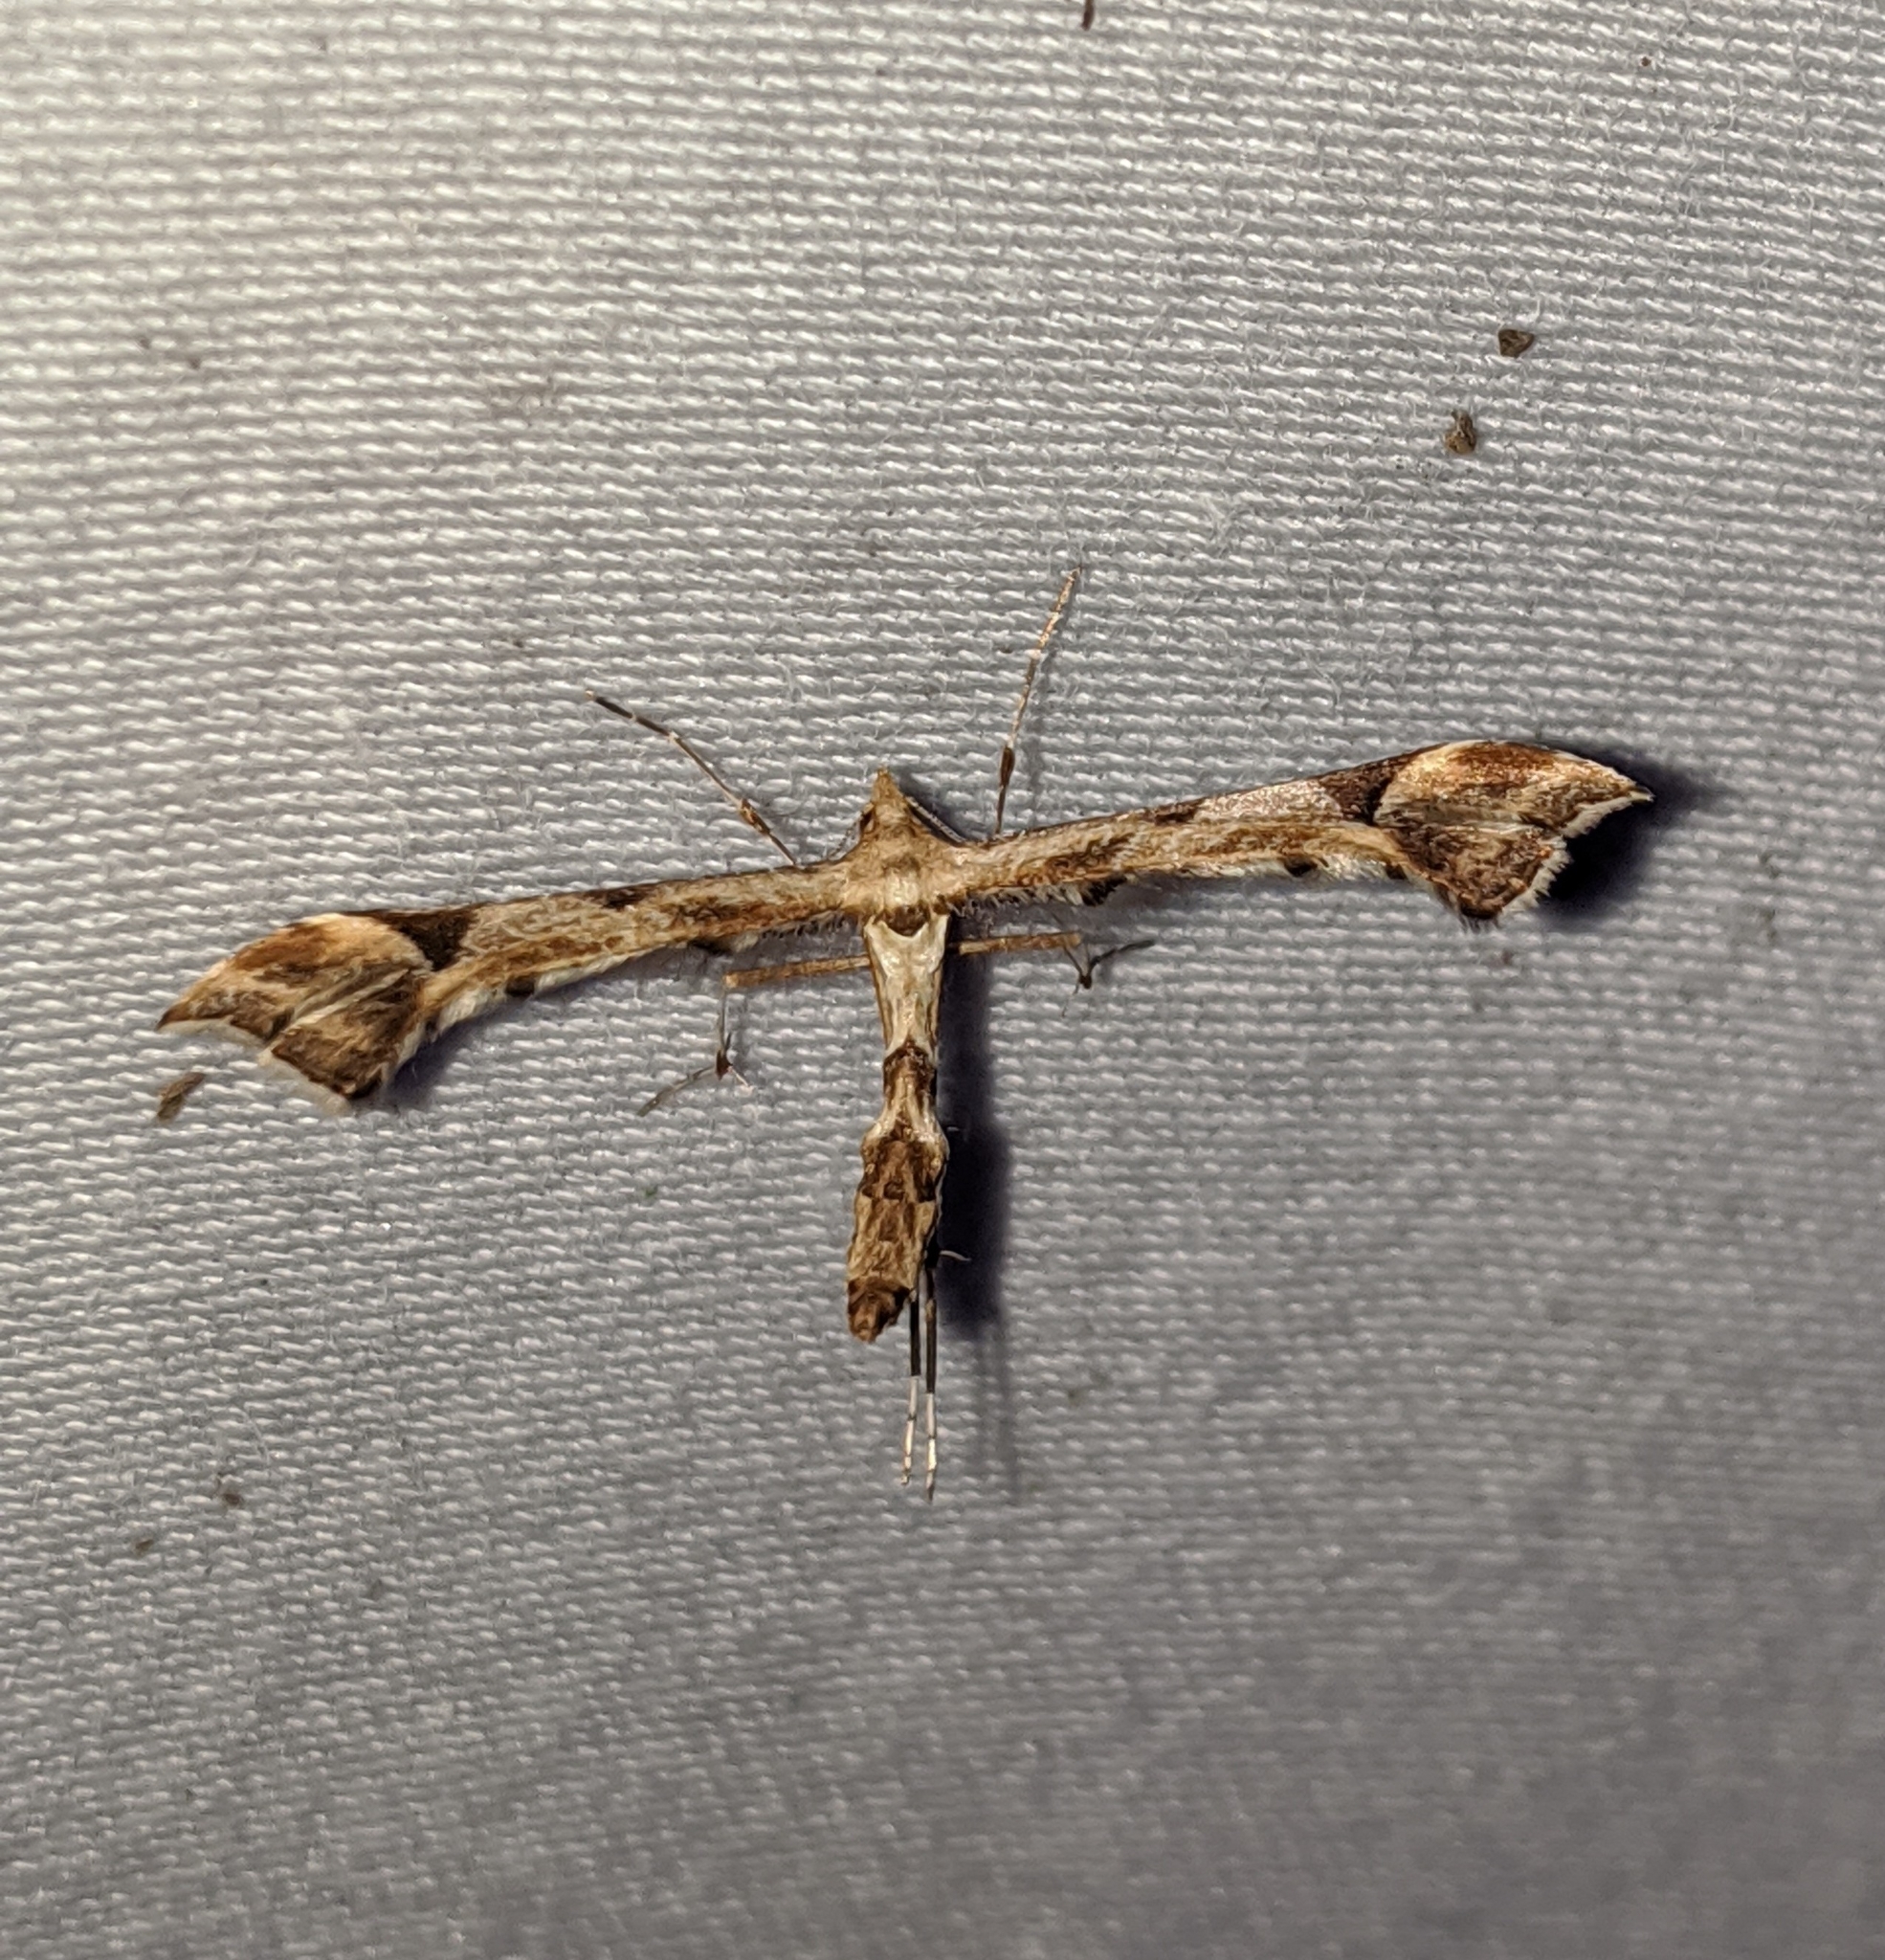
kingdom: Animalia
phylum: Arthropoda
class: Insecta
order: Lepidoptera
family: Pterophoridae
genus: Platyptilia
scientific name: Platyptilia carduidactylus
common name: Artichoke plume moth
